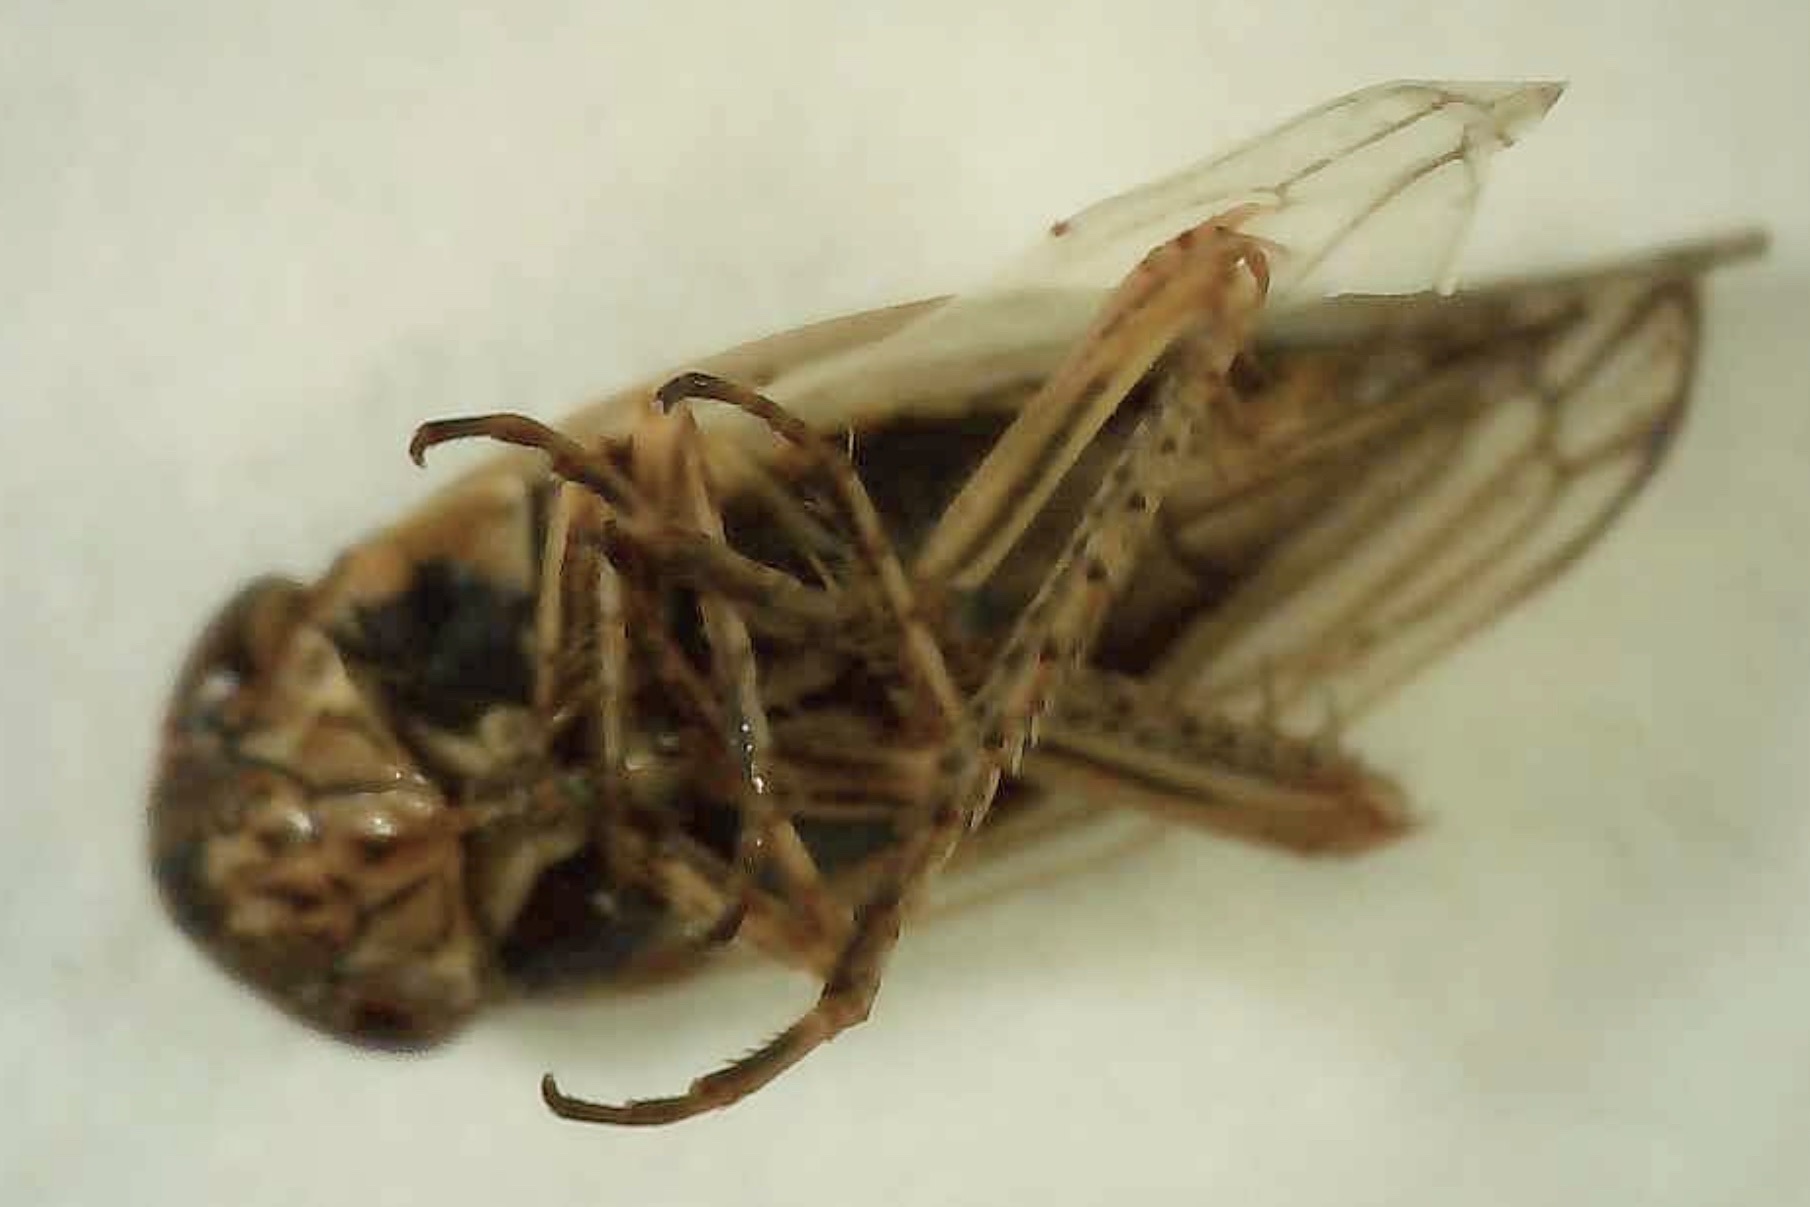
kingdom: Animalia
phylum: Arthropoda
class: Insecta
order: Hemiptera
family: Cicadellidae
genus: Exitianus
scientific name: Exitianus exitiosus
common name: Gray lawn leafhopper
